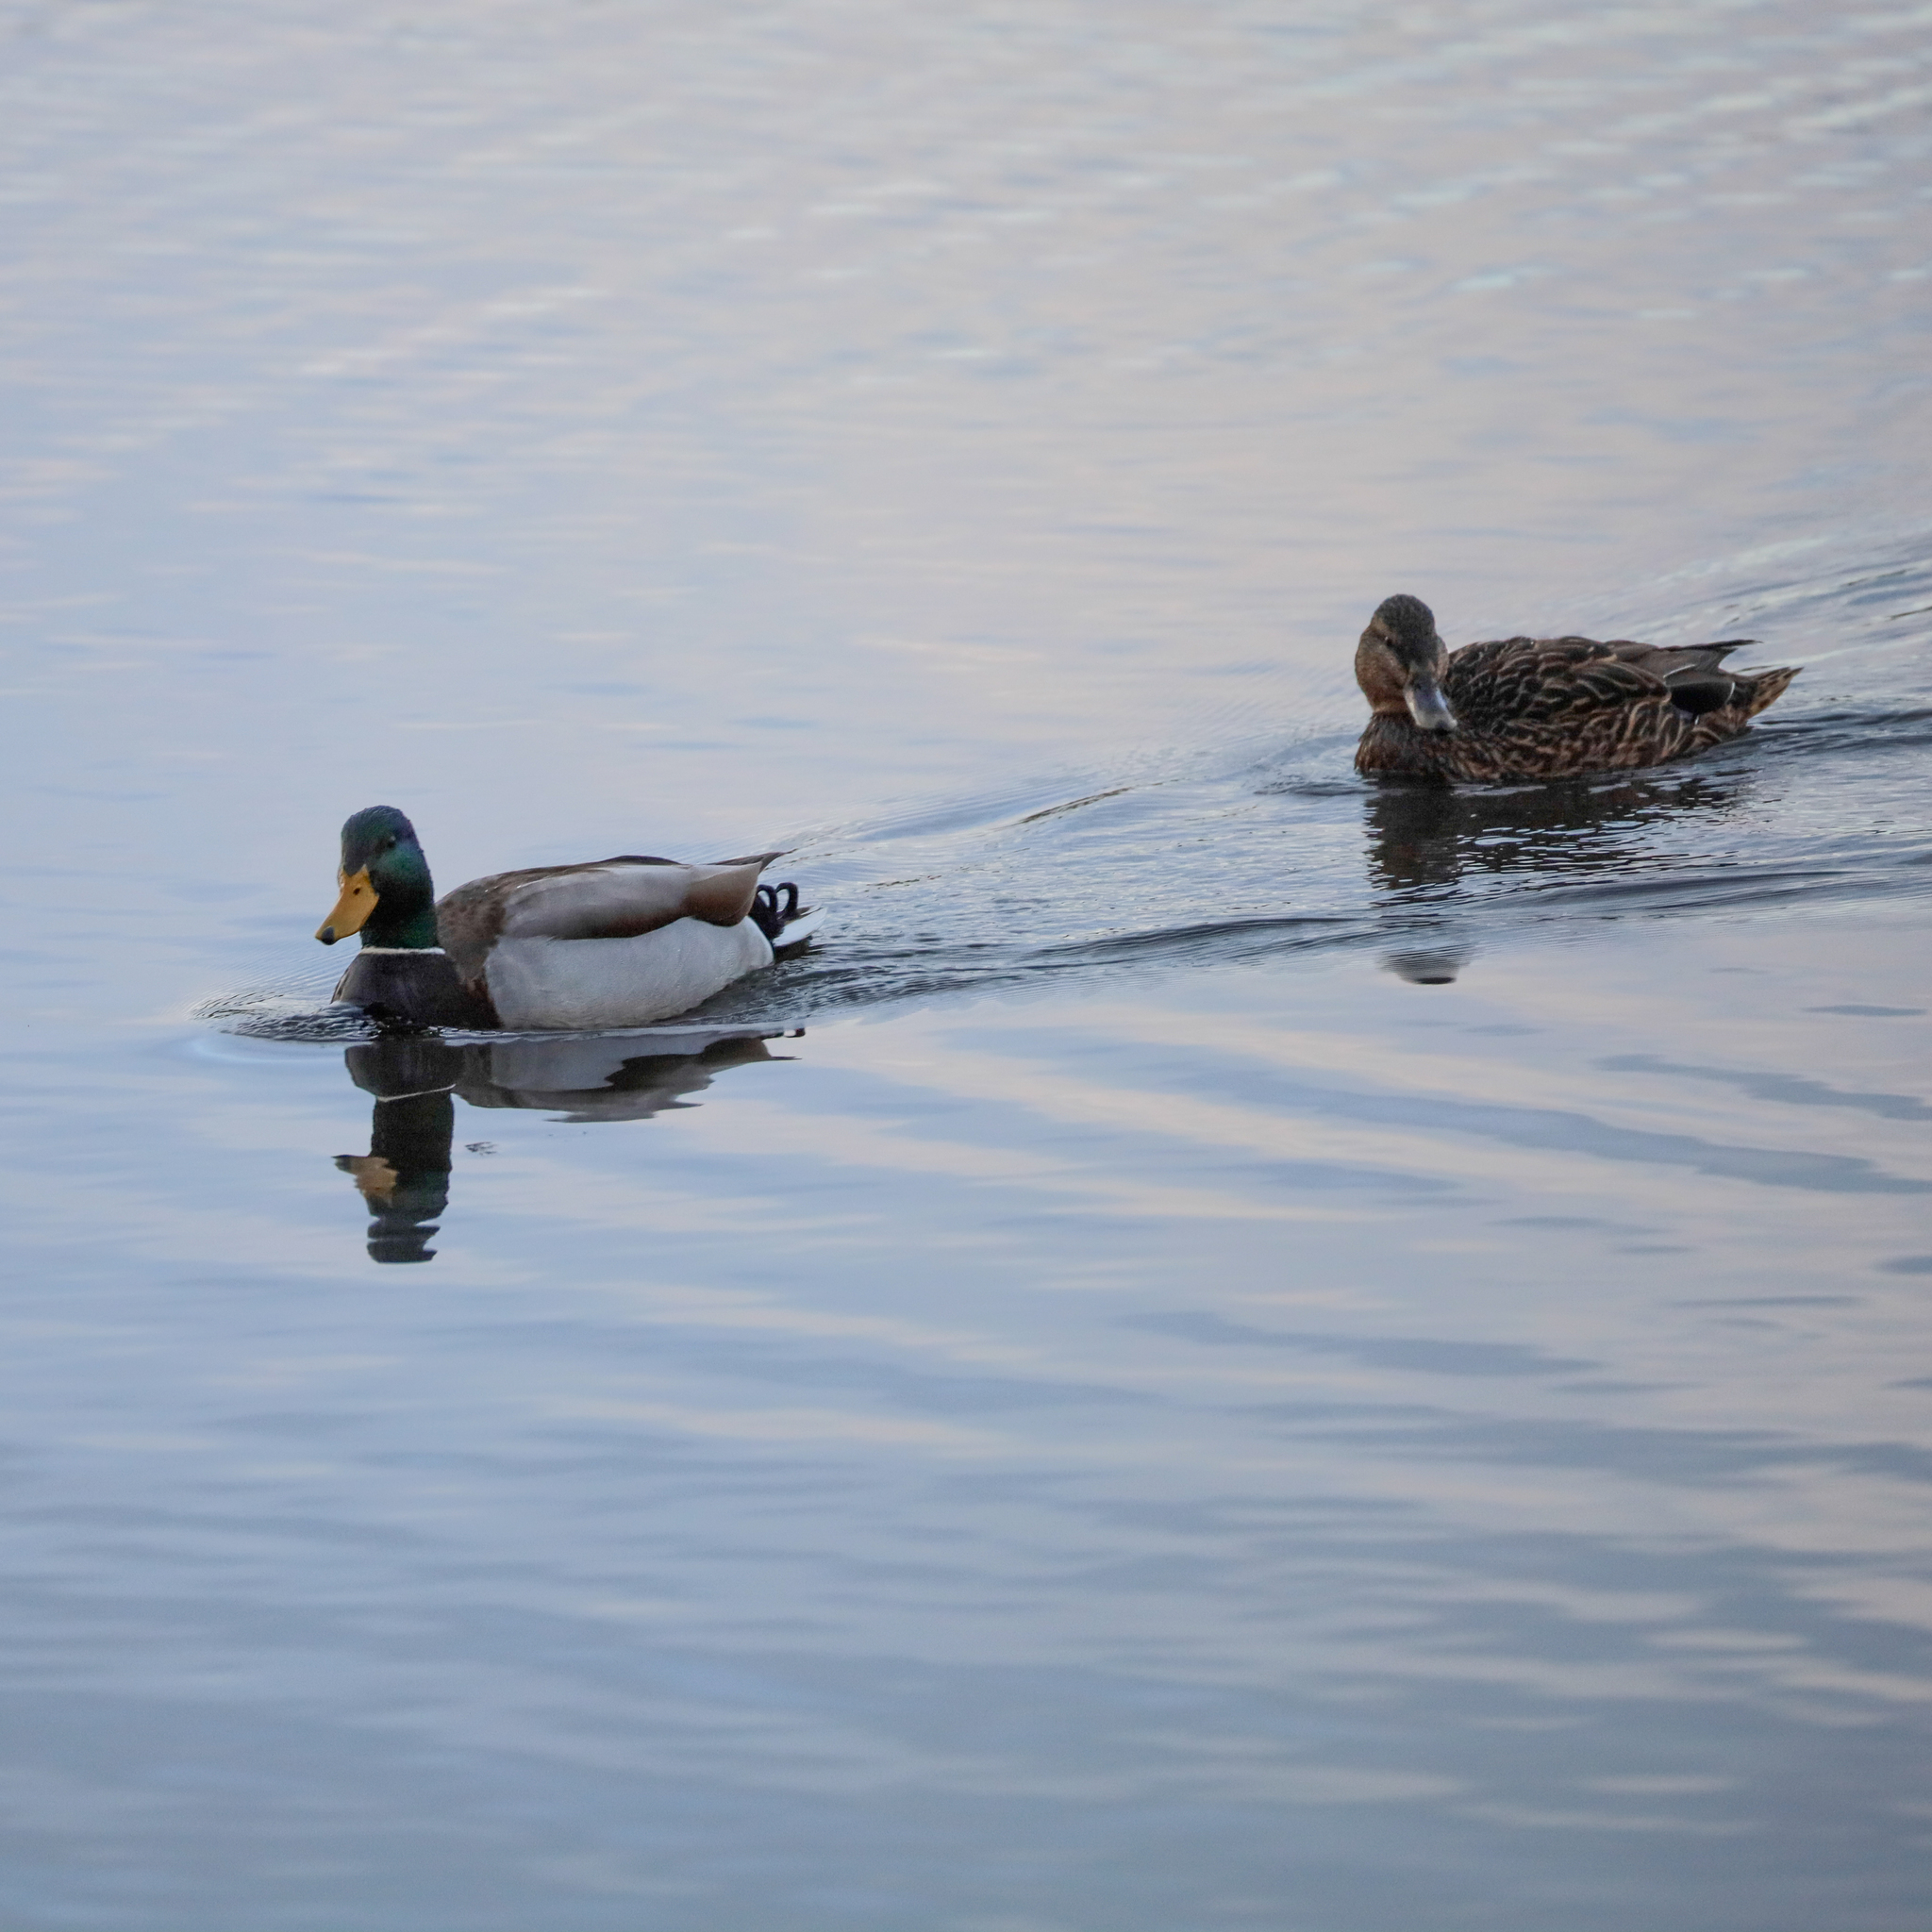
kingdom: Animalia
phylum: Chordata
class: Aves
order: Anseriformes
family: Anatidae
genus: Anas
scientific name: Anas platyrhynchos
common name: Mallard
